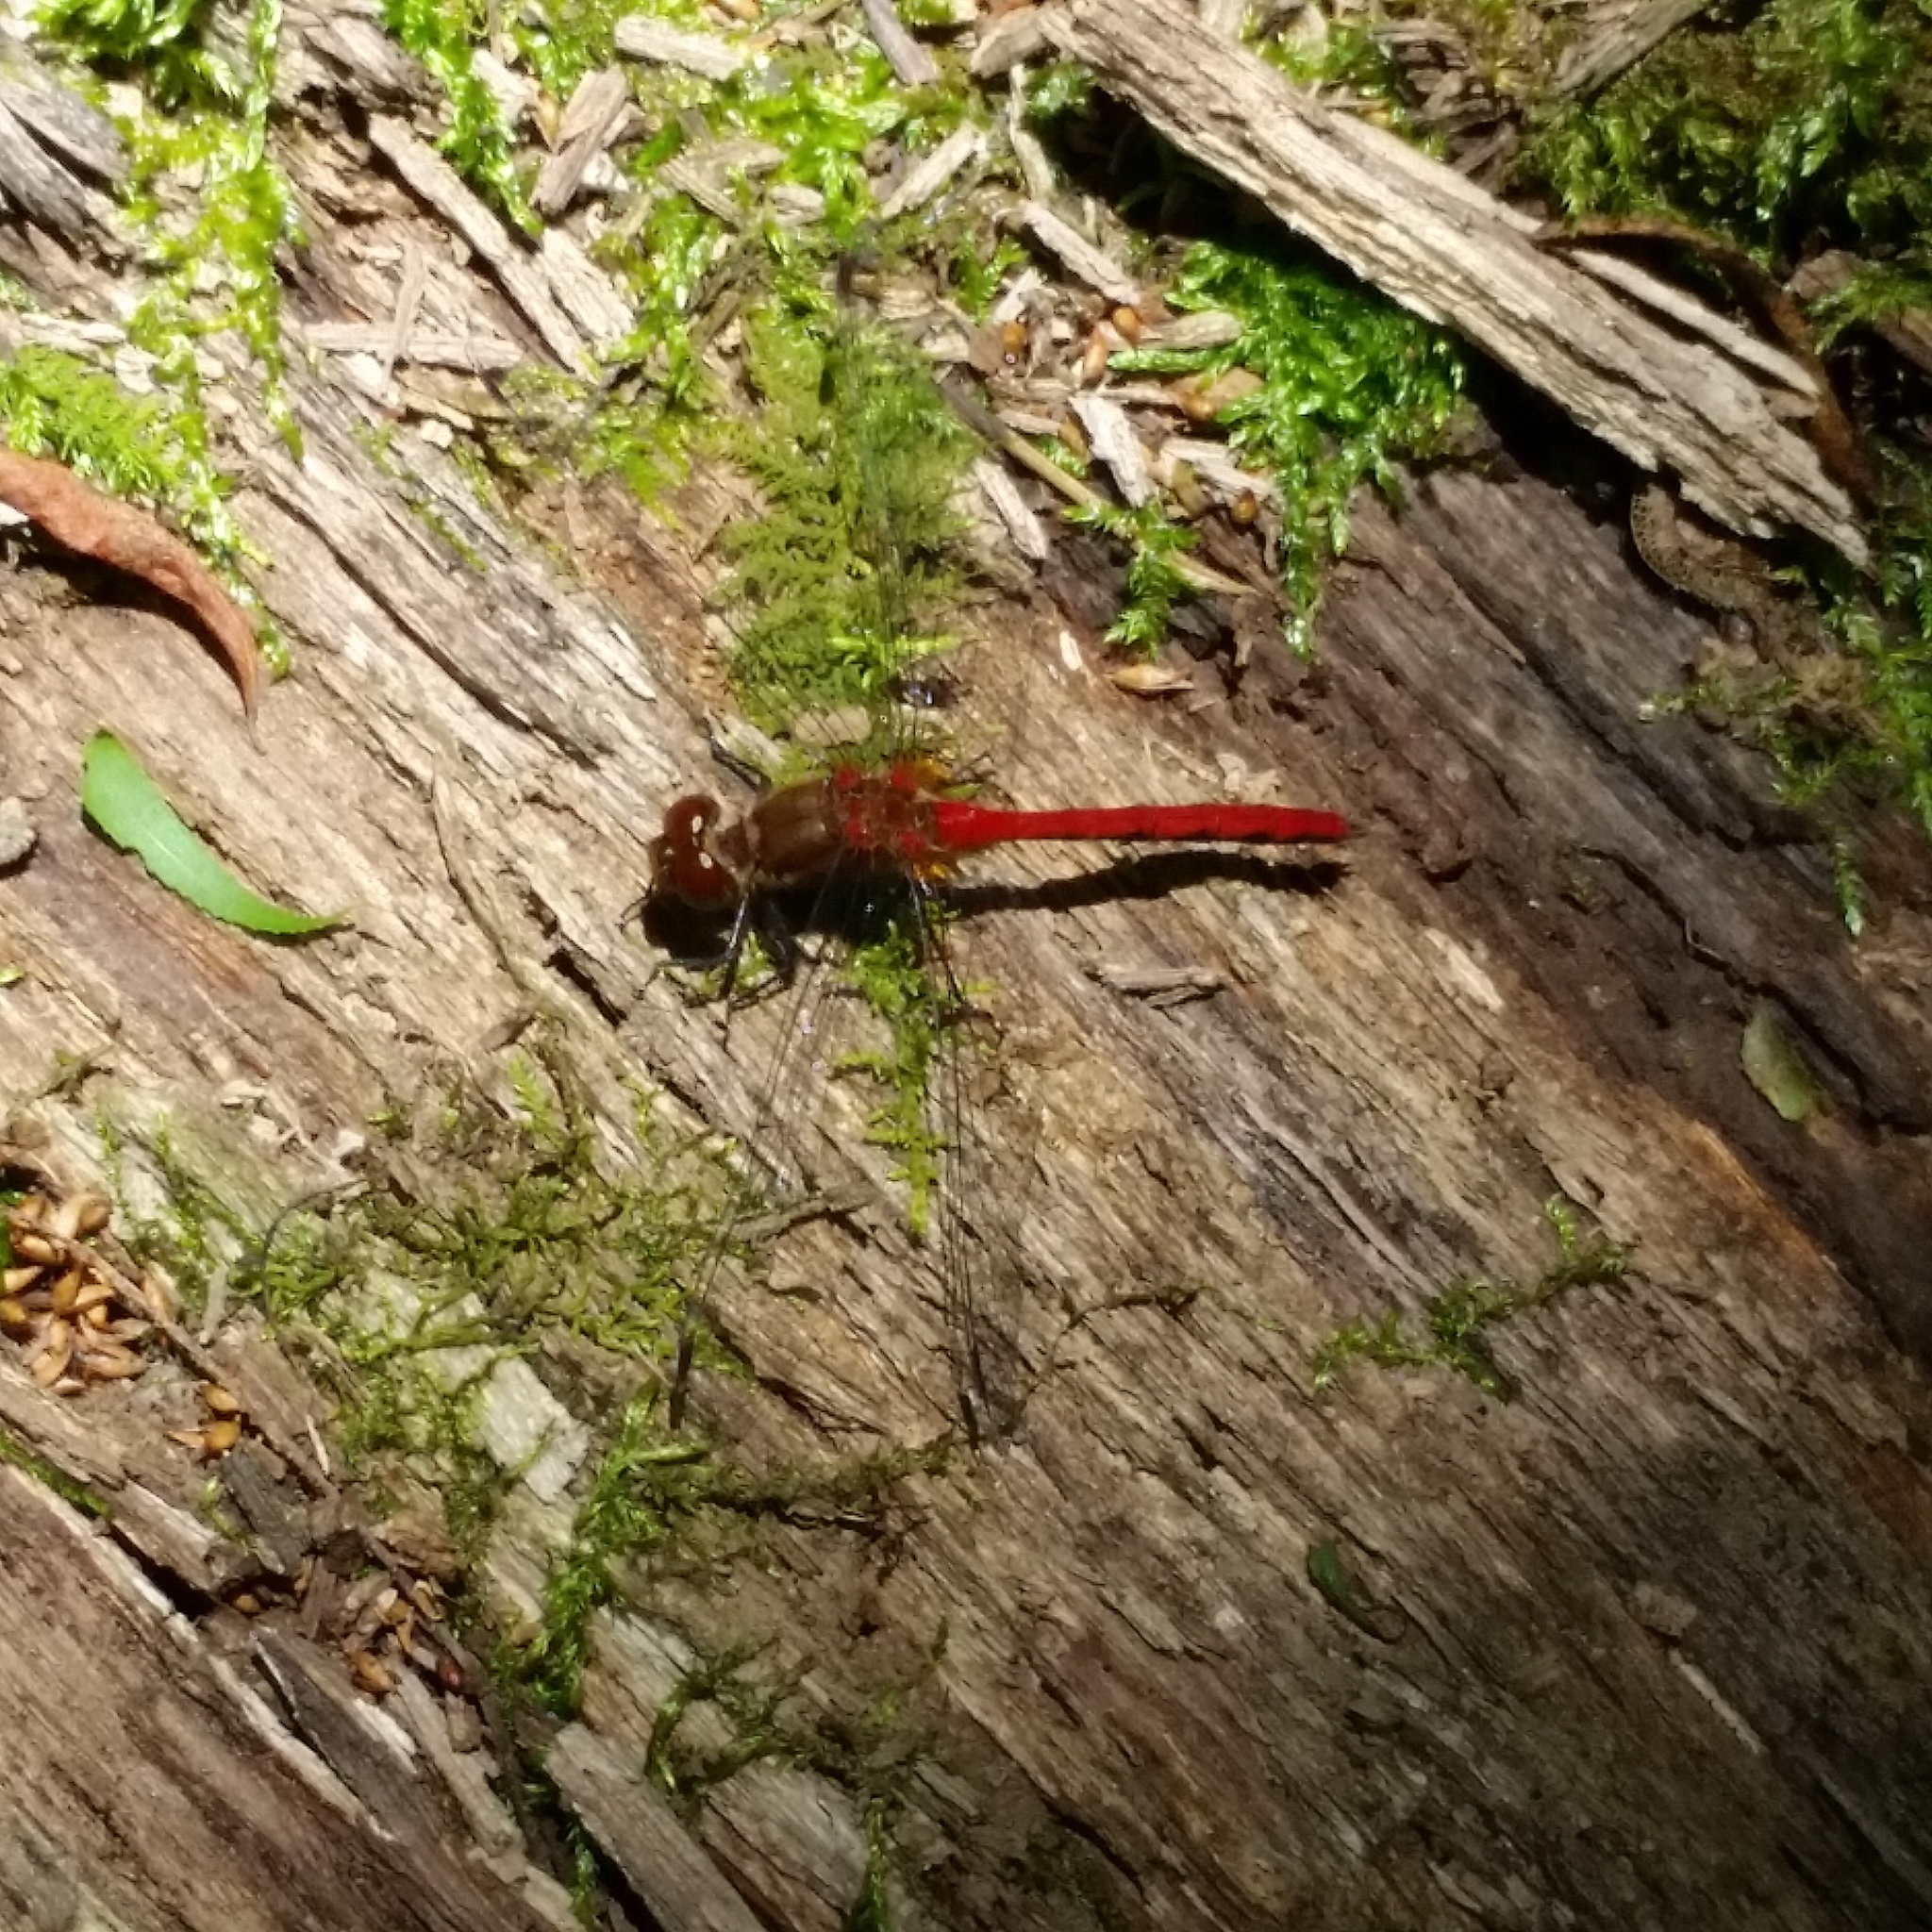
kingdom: Animalia
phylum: Arthropoda
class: Insecta
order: Odonata
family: Libellulidae
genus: Sympetrum
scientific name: Sympetrum
